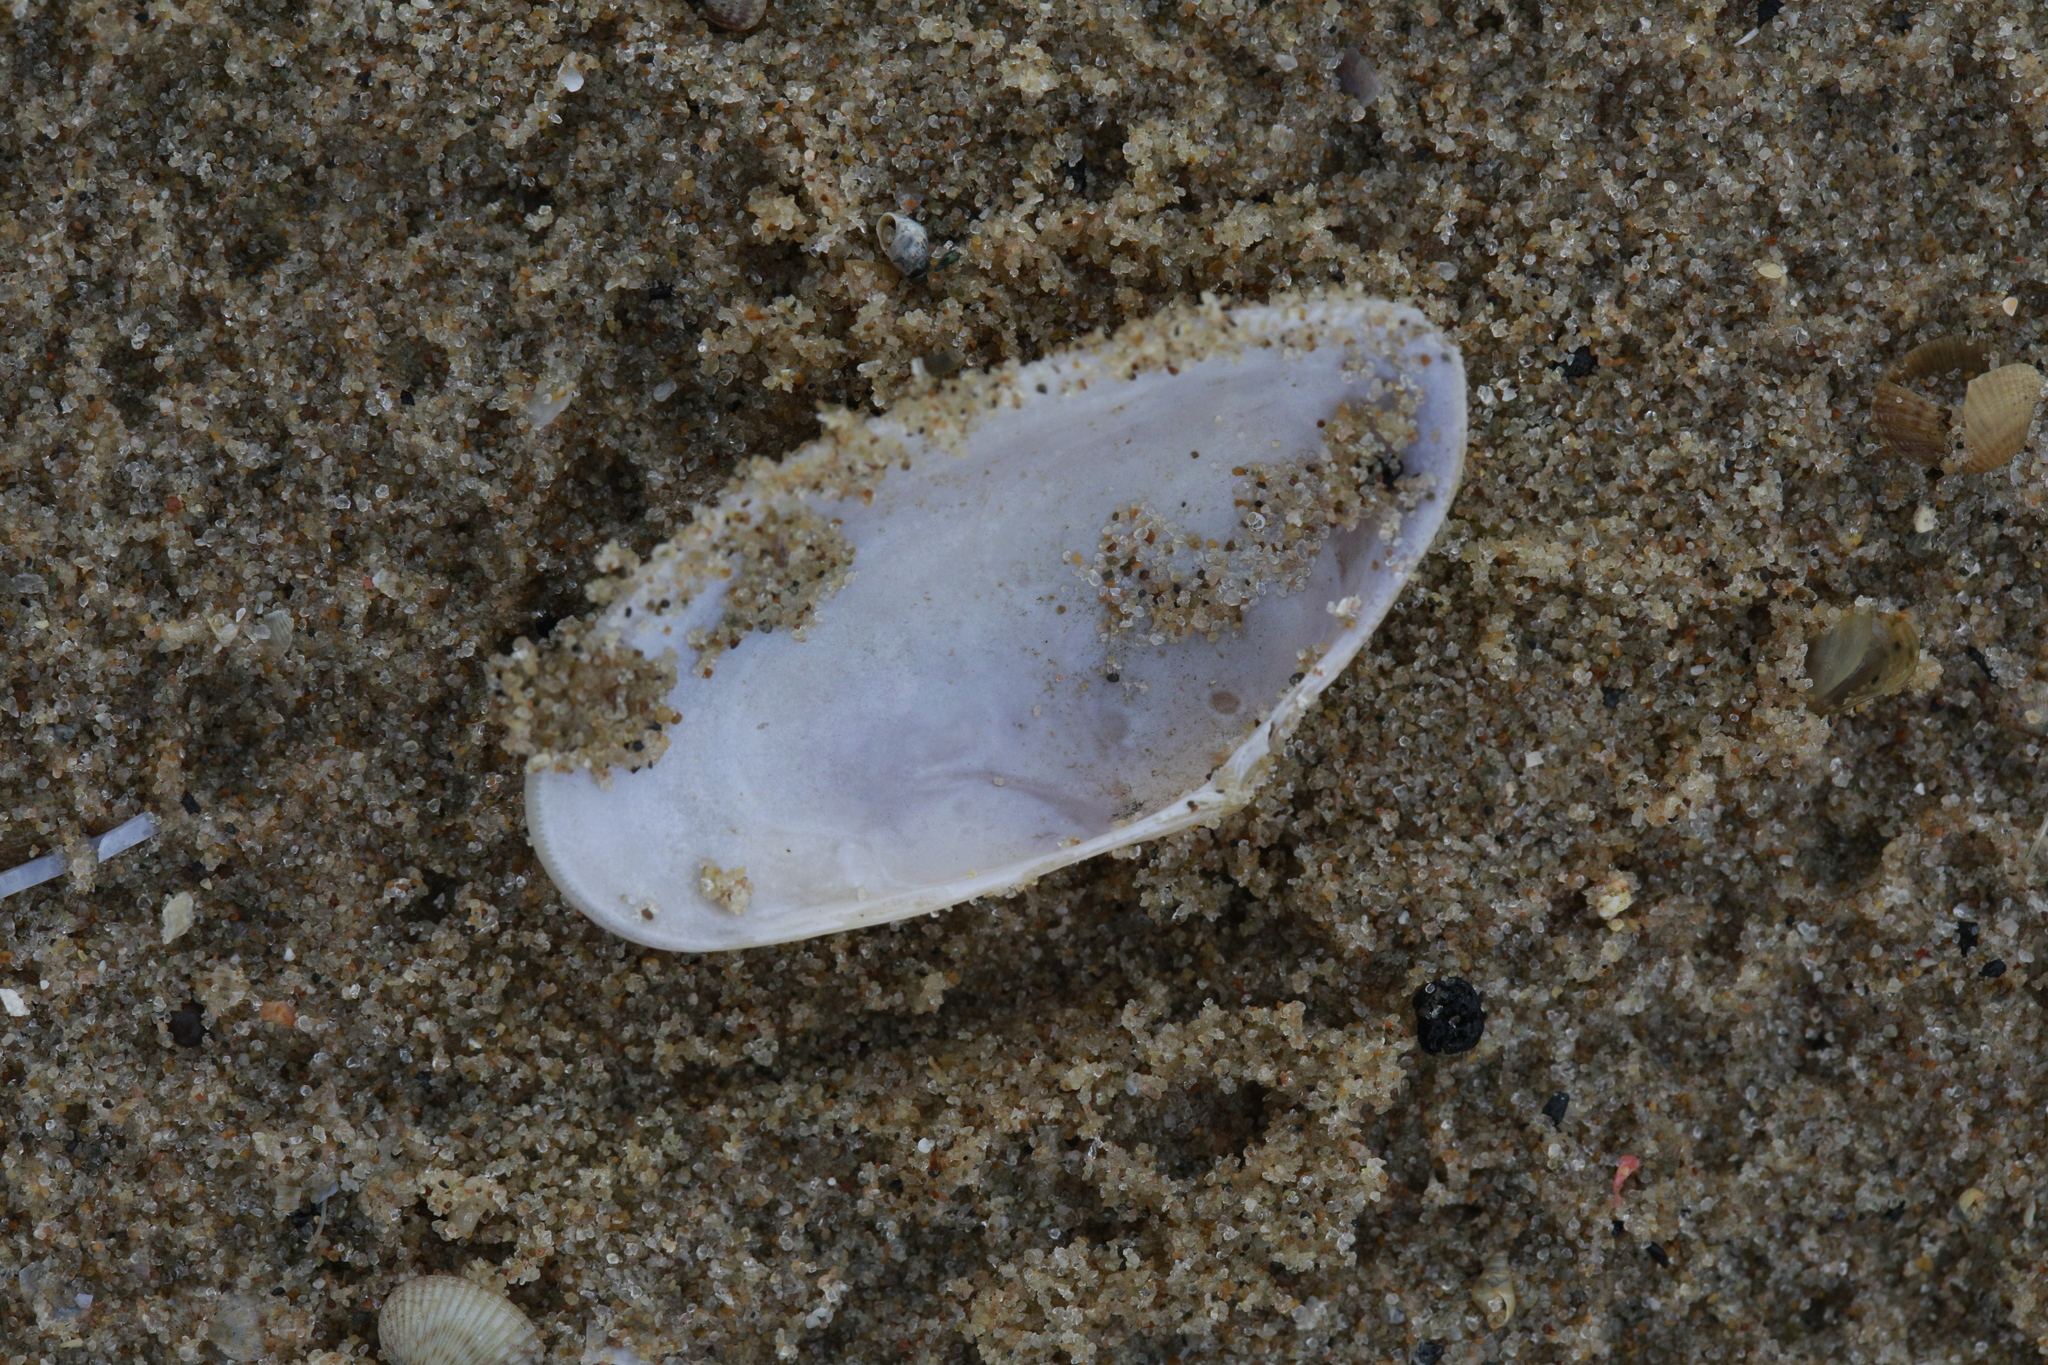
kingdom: Animalia
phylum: Mollusca
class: Bivalvia
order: Cardiida
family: Donacidae
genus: Donax
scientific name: Donax vittatus
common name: Banded wedge-shell
